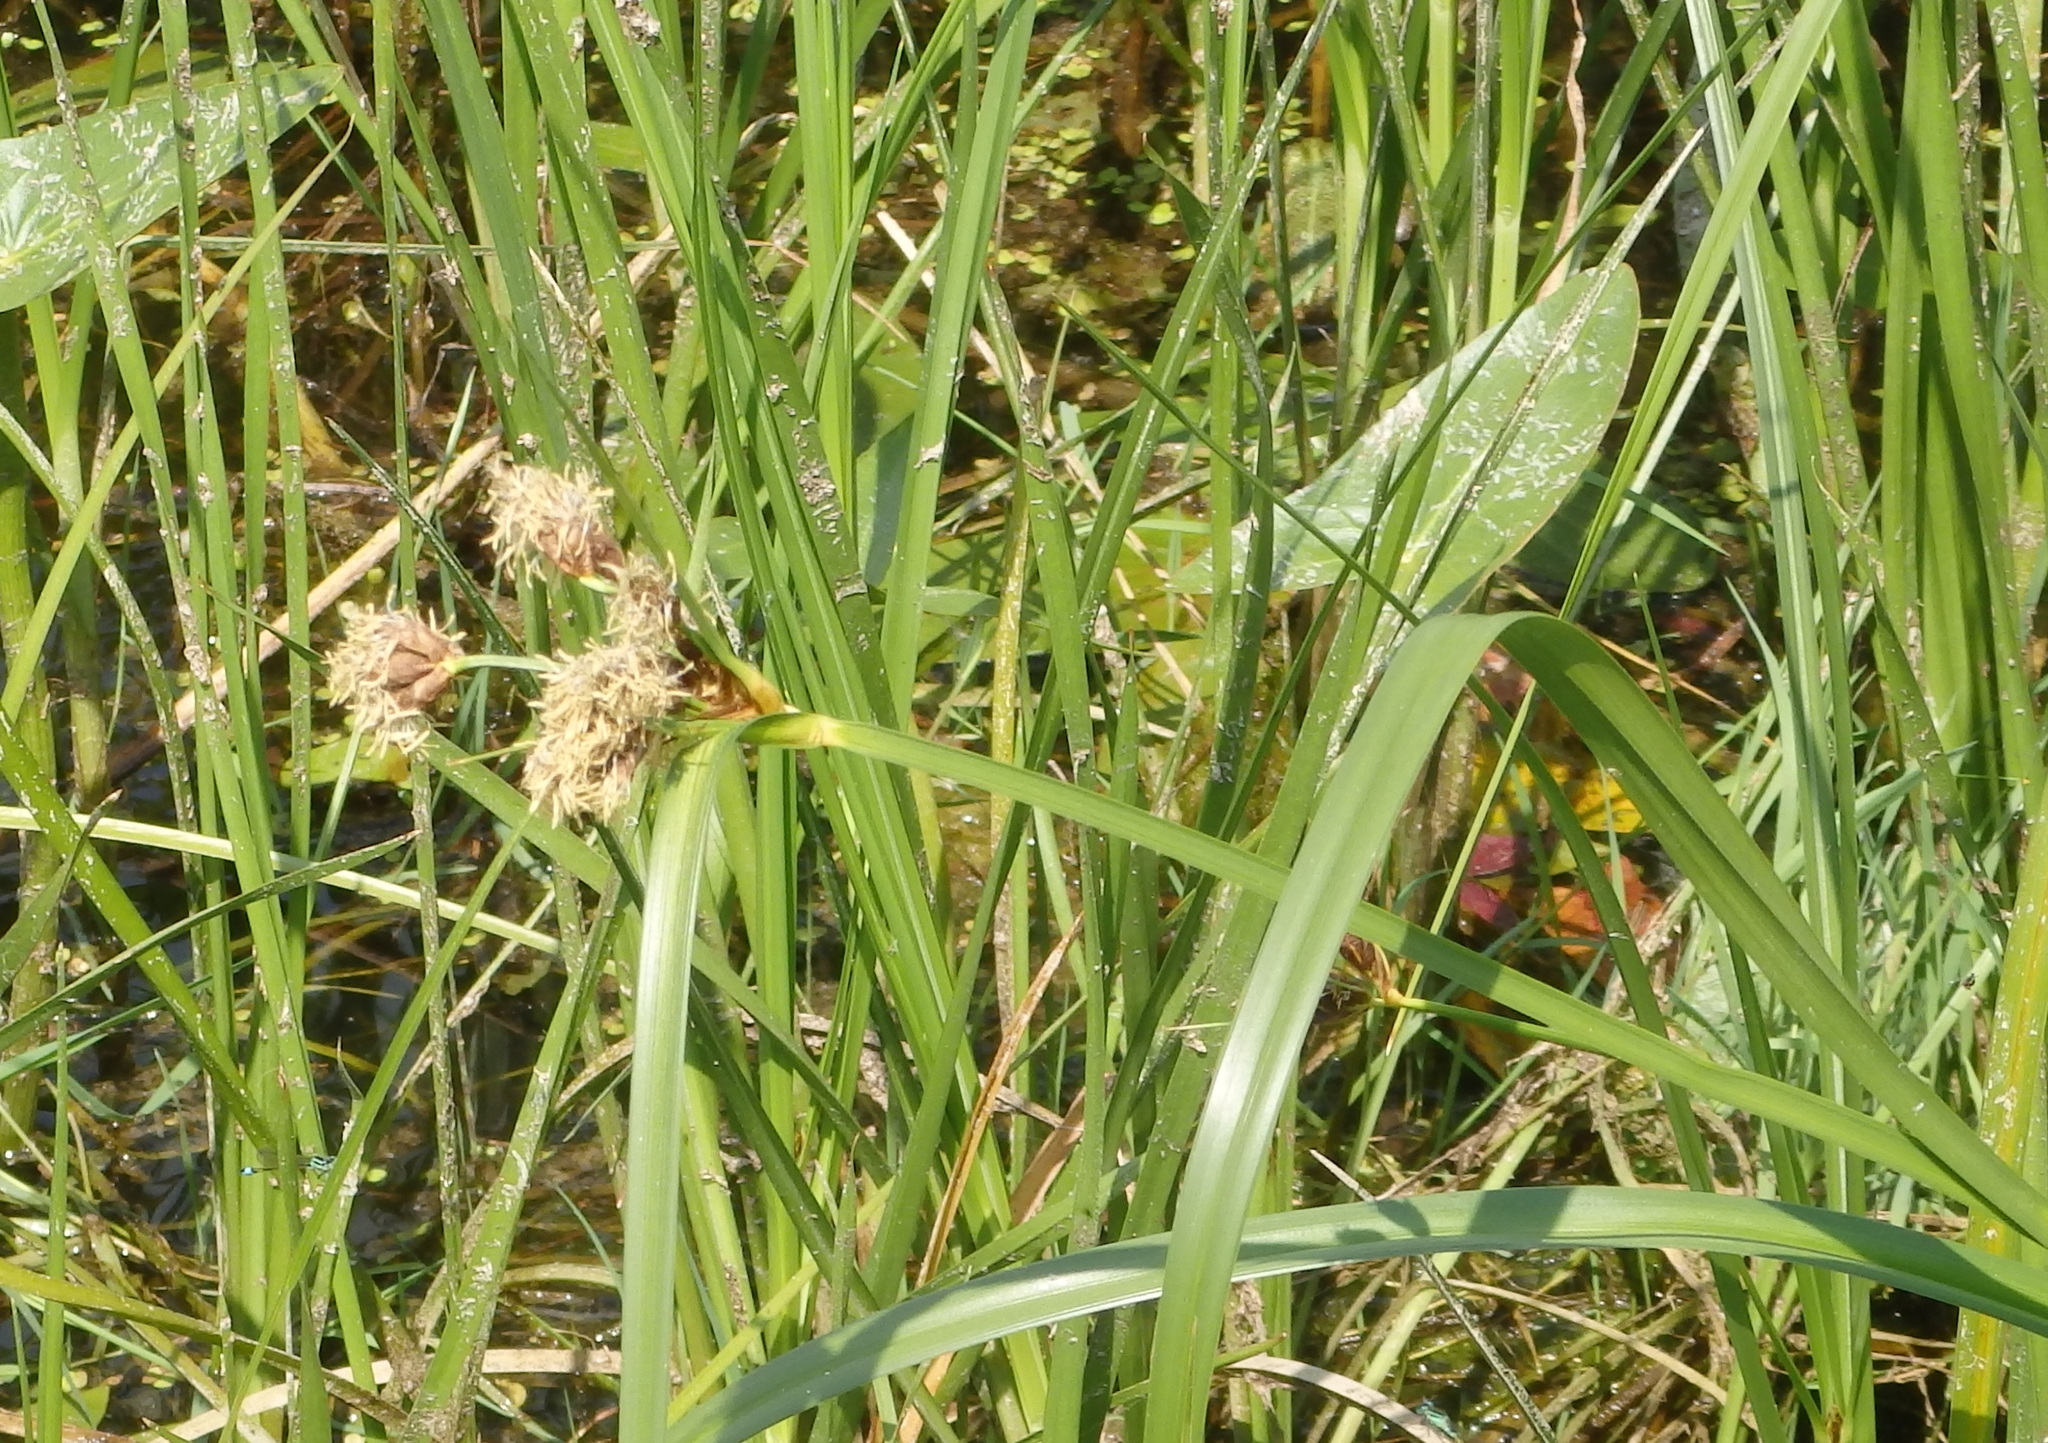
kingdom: Plantae
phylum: Tracheophyta
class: Liliopsida
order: Poales
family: Cyperaceae
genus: Bolboschoenus
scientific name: Bolboschoenus laticarpus
